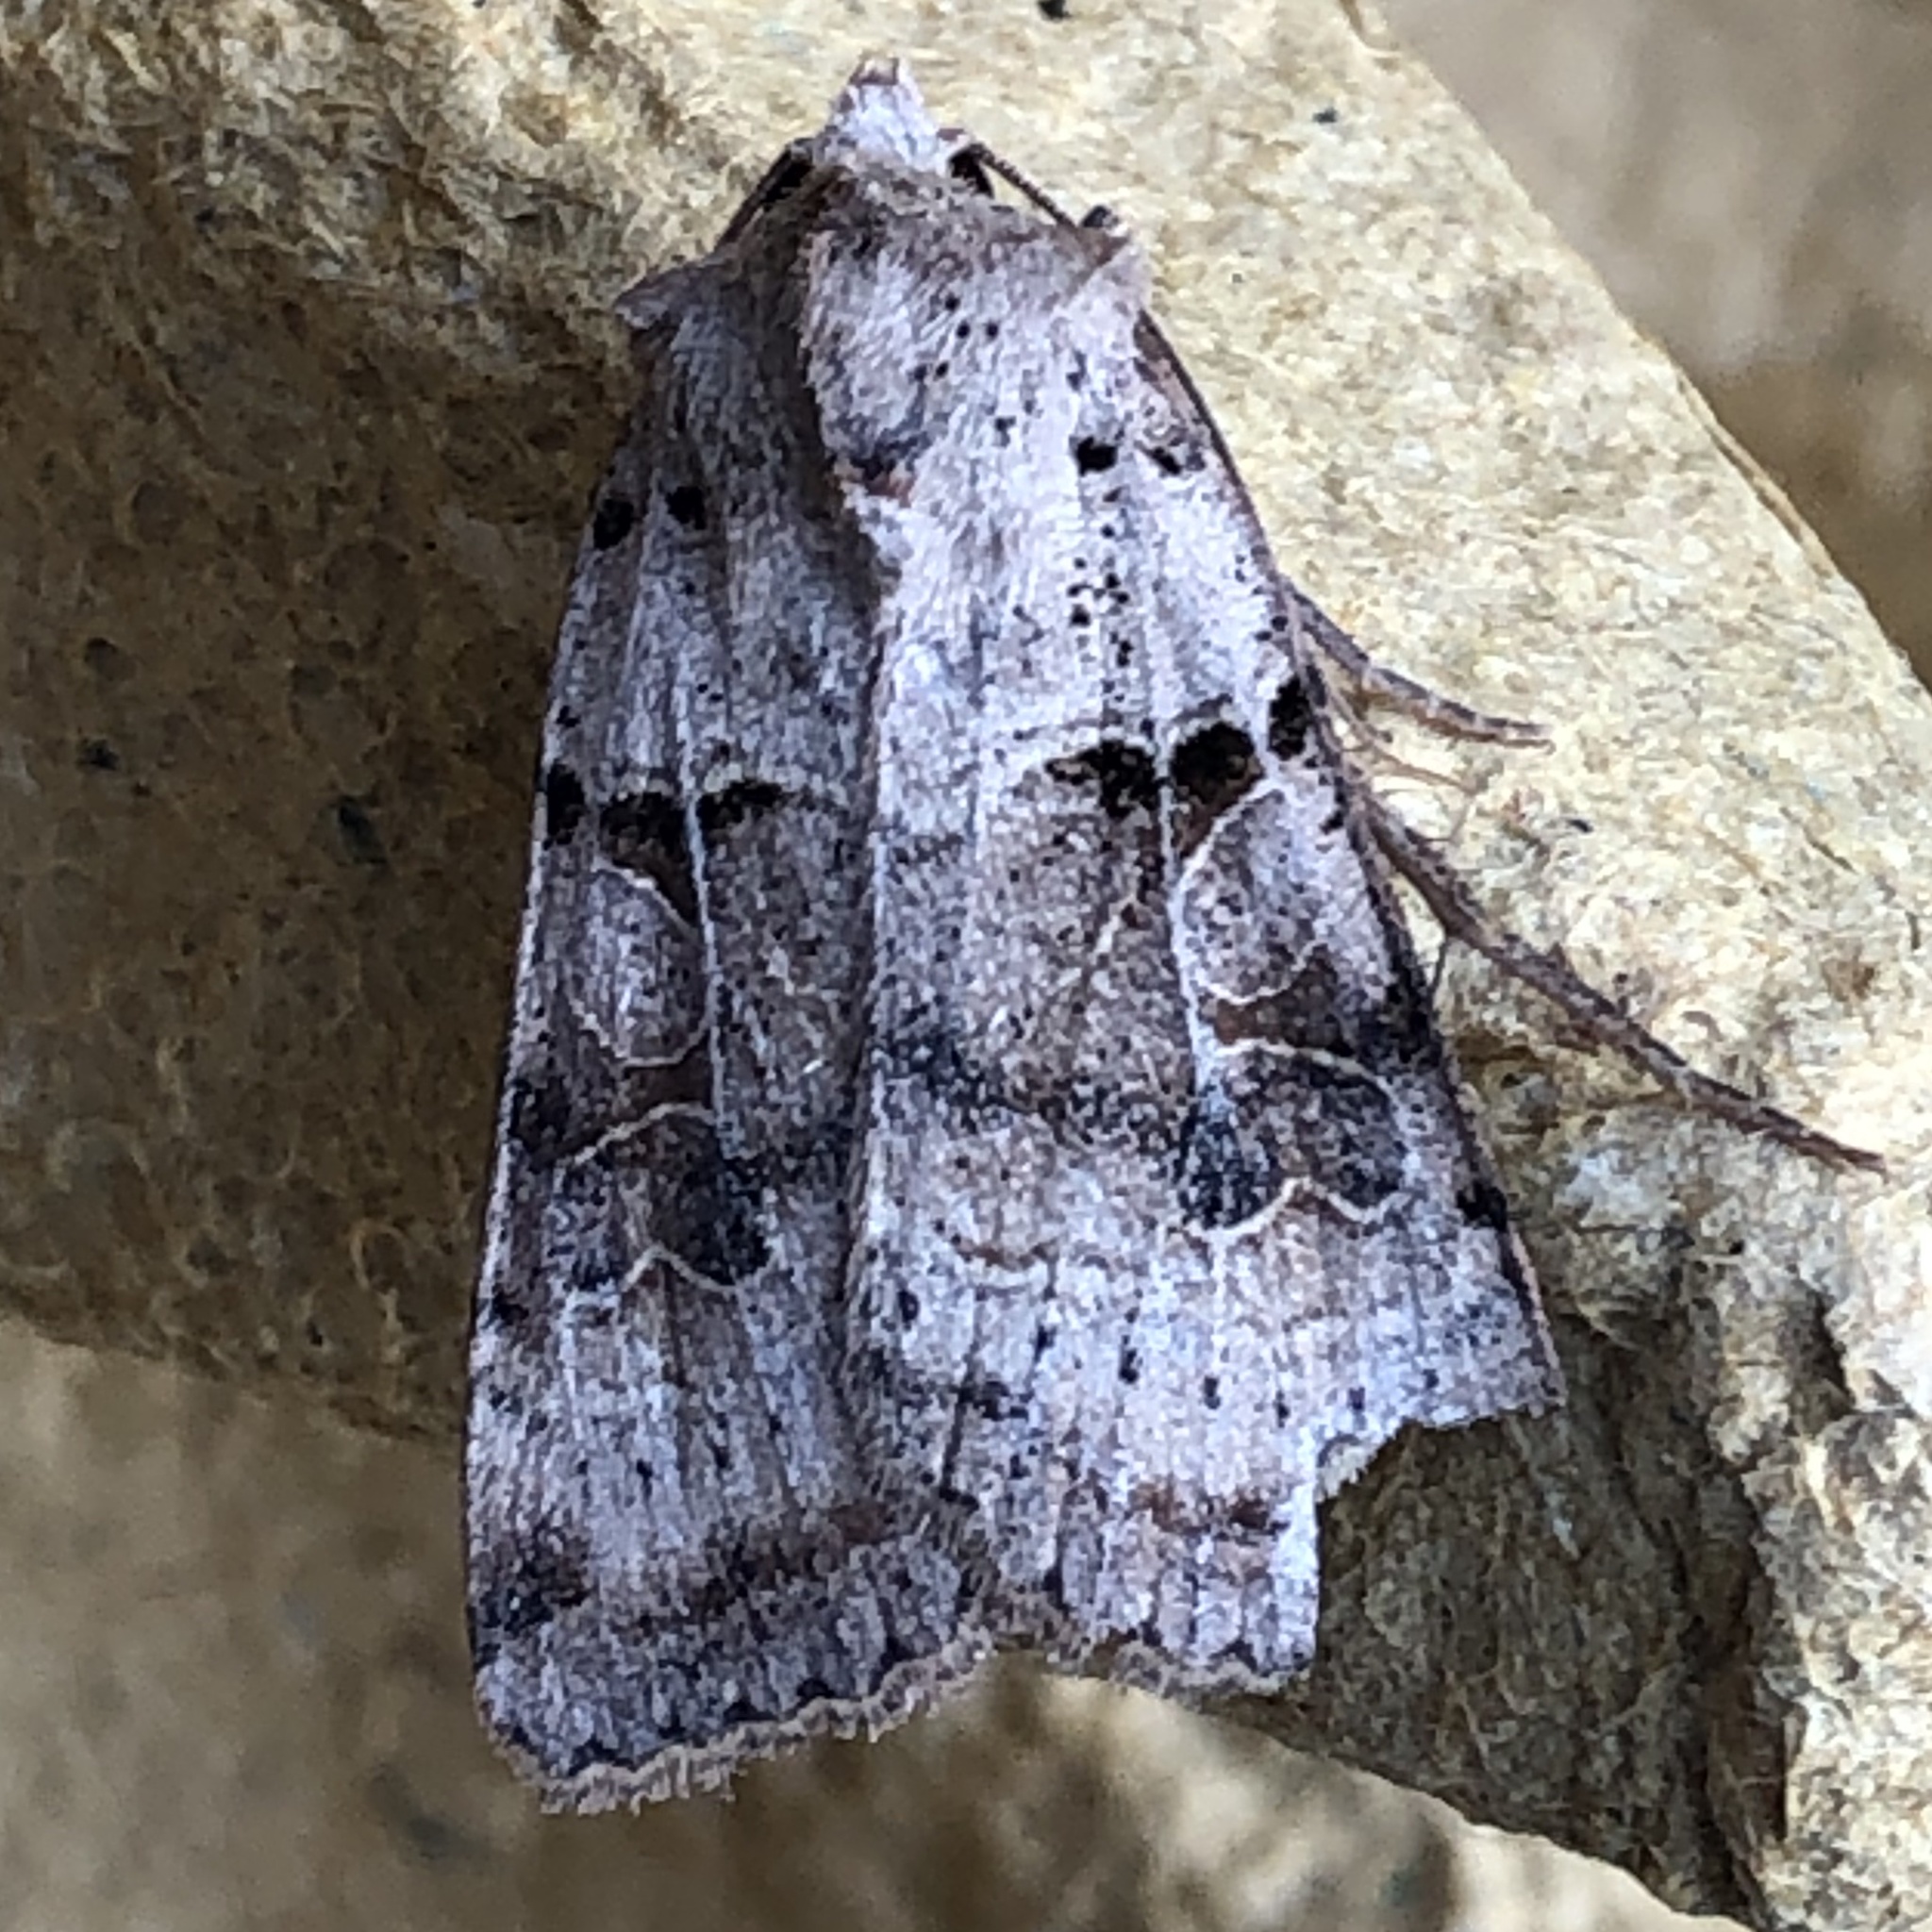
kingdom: Animalia
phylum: Arthropoda
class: Insecta
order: Lepidoptera
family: Noctuidae
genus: Eugnorisma
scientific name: Eugnorisma depuncta
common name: Plain clay
